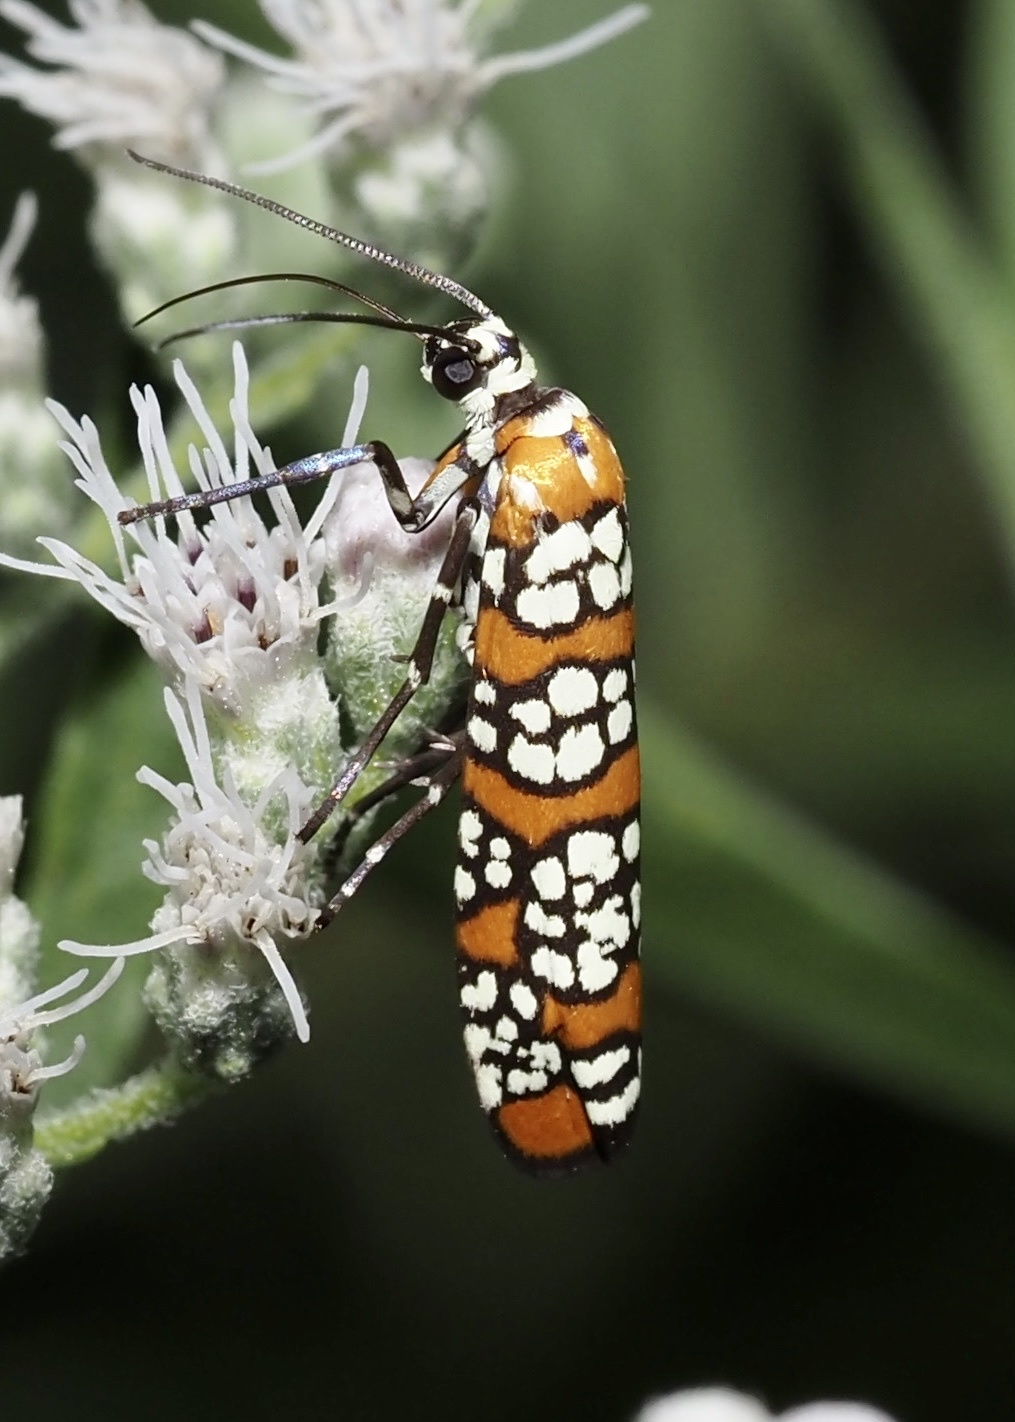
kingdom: Animalia
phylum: Arthropoda
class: Insecta
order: Lepidoptera
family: Attevidae
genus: Atteva
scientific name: Atteva punctella
